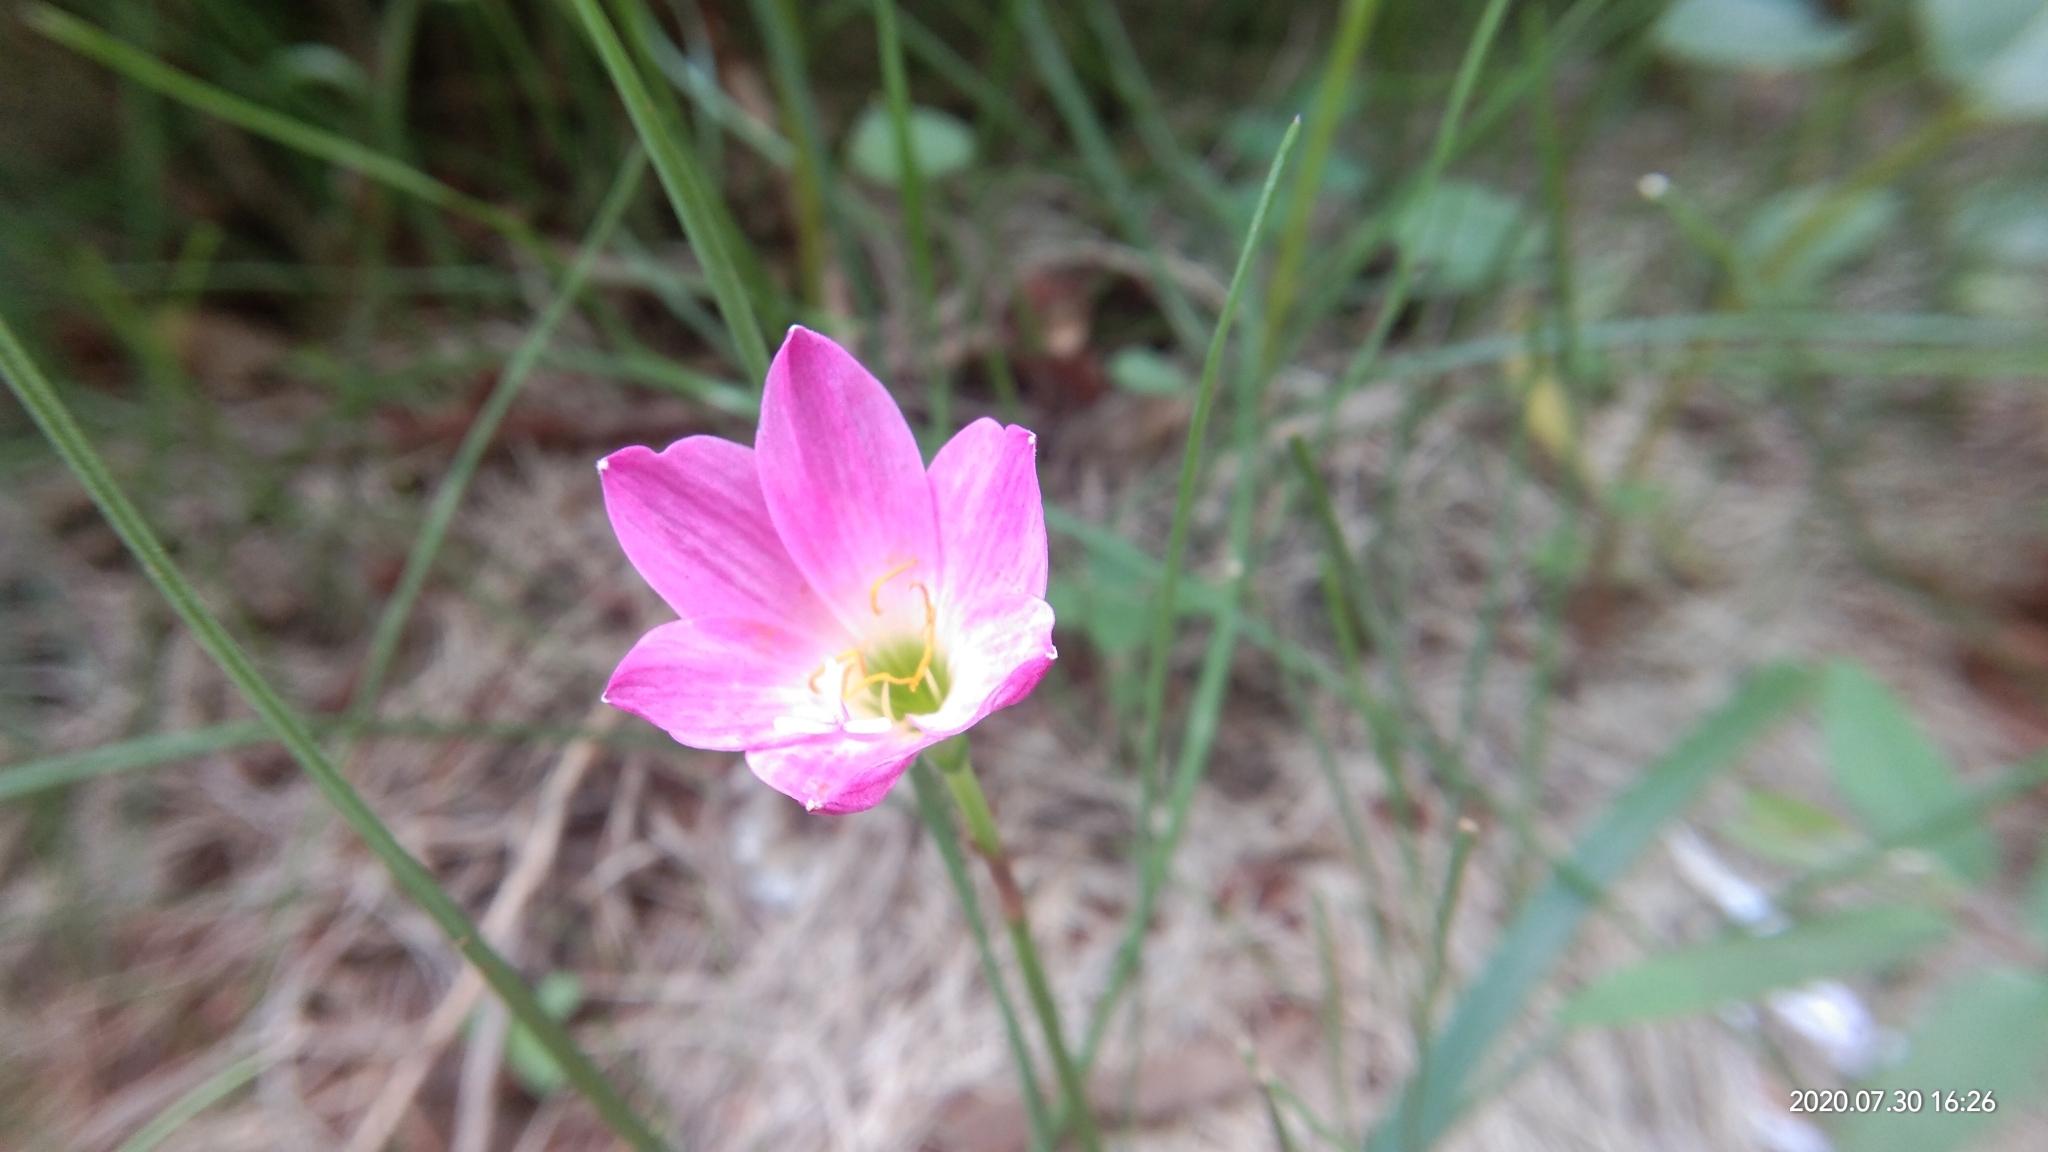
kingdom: Plantae
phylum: Tracheophyta
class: Liliopsida
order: Asparagales
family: Amaryllidaceae
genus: Zephyranthes
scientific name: Zephyranthes carinata
